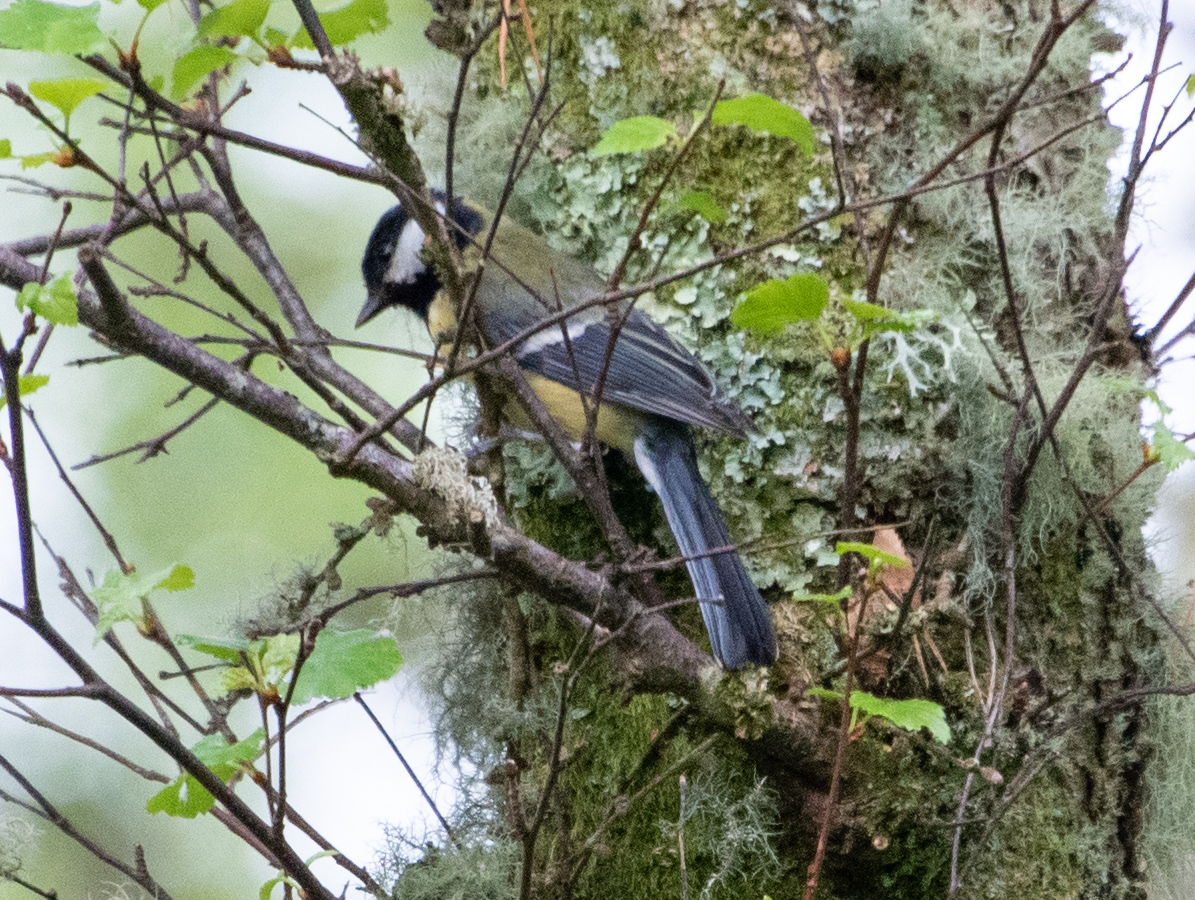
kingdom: Animalia
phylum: Chordata
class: Aves
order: Passeriformes
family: Paridae
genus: Parus
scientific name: Parus major
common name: Great tit
